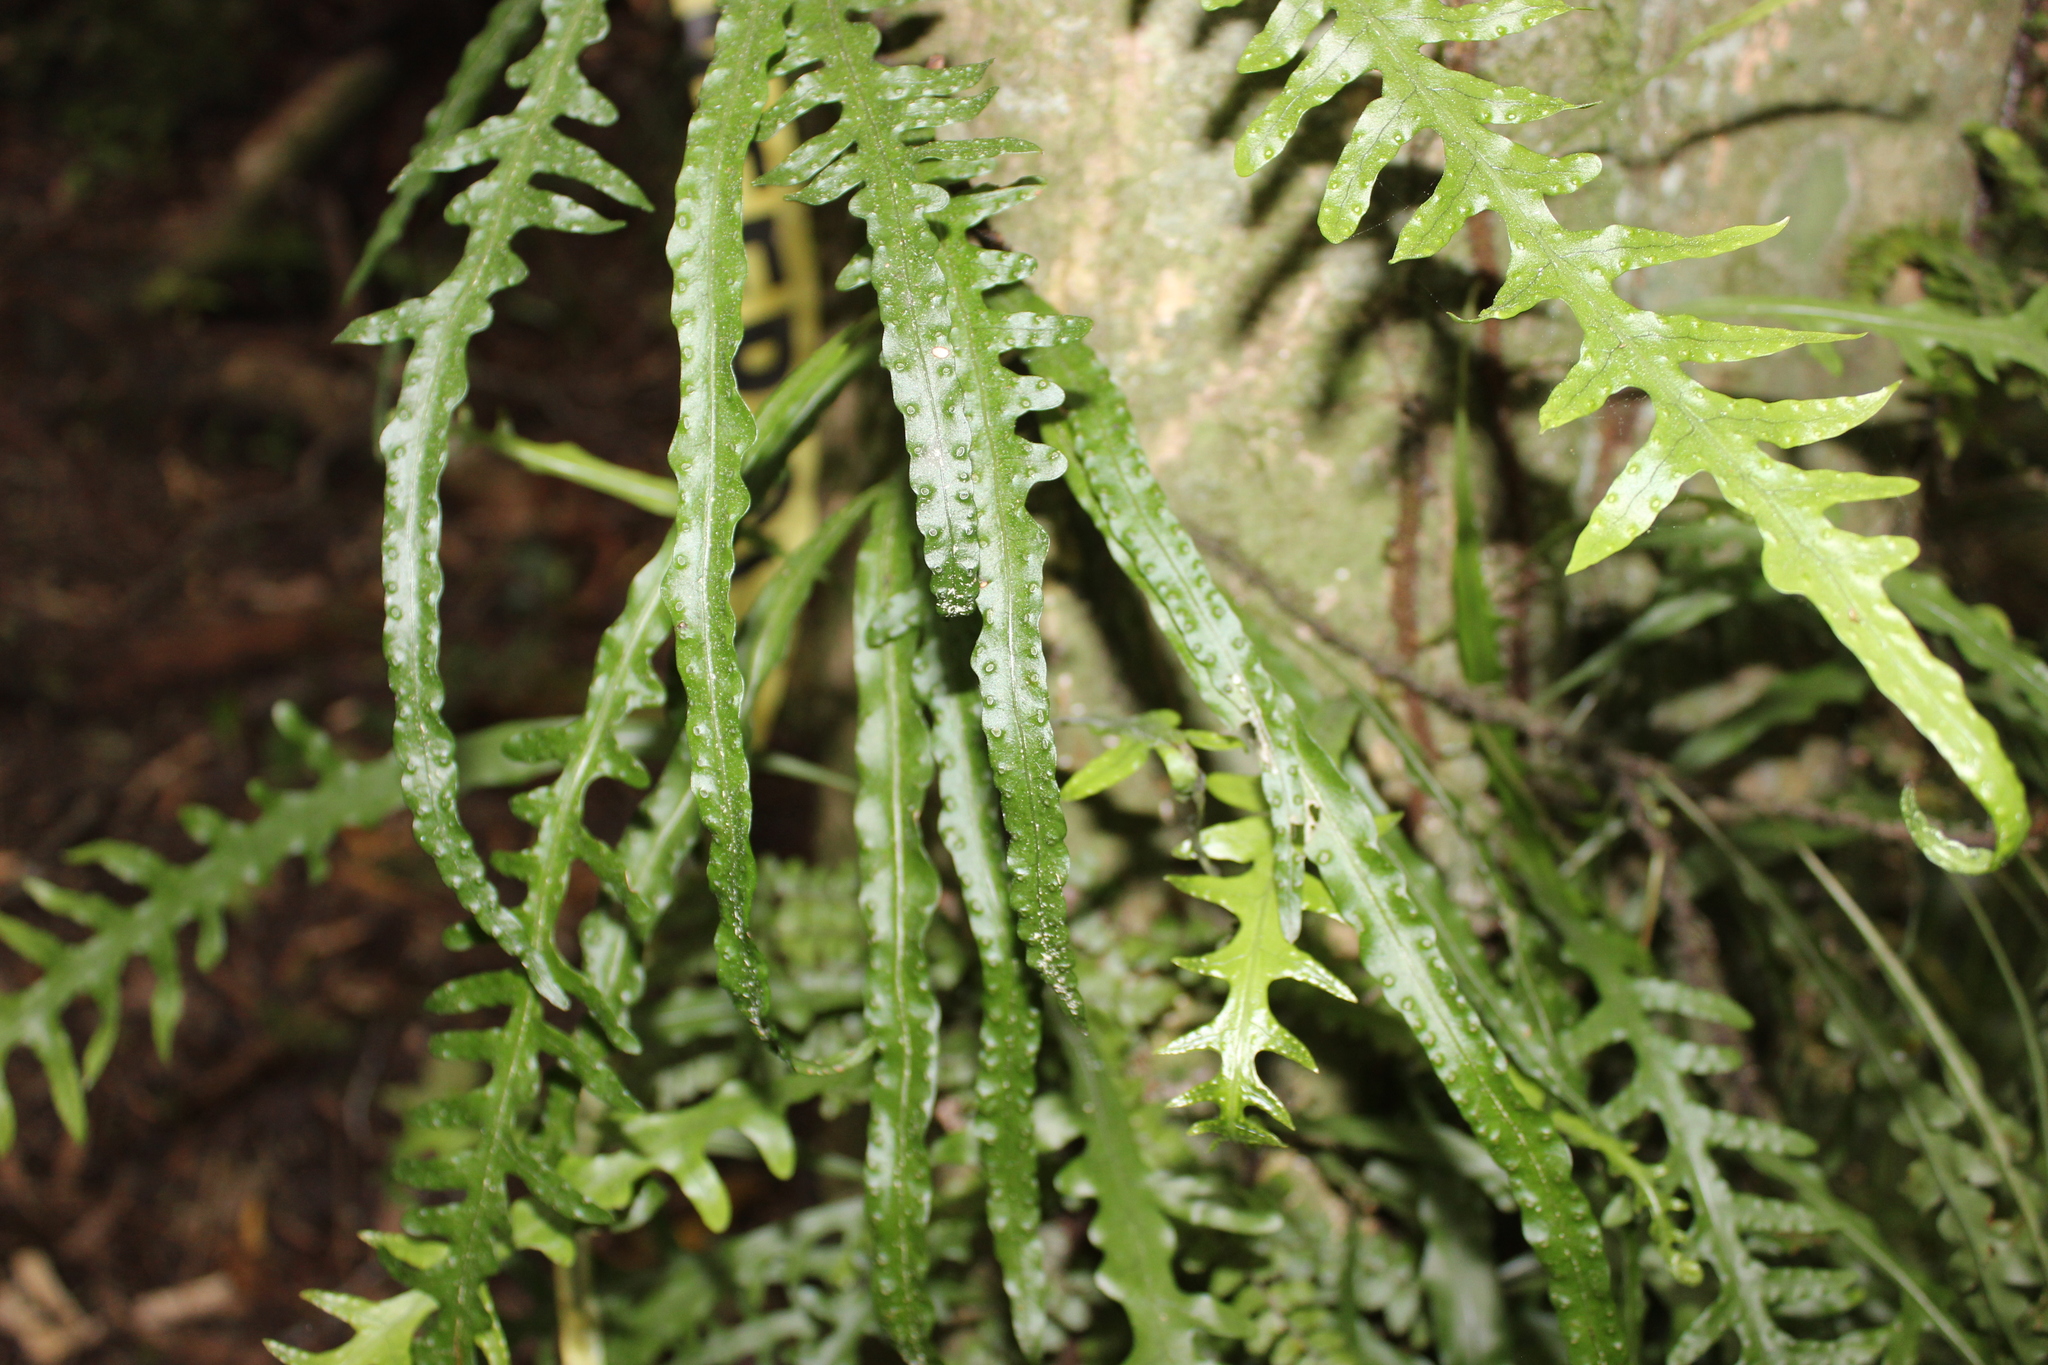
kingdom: Plantae
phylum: Tracheophyta
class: Polypodiopsida
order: Polypodiales
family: Polypodiaceae
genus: Lecanopteris
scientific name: Lecanopteris scandens
